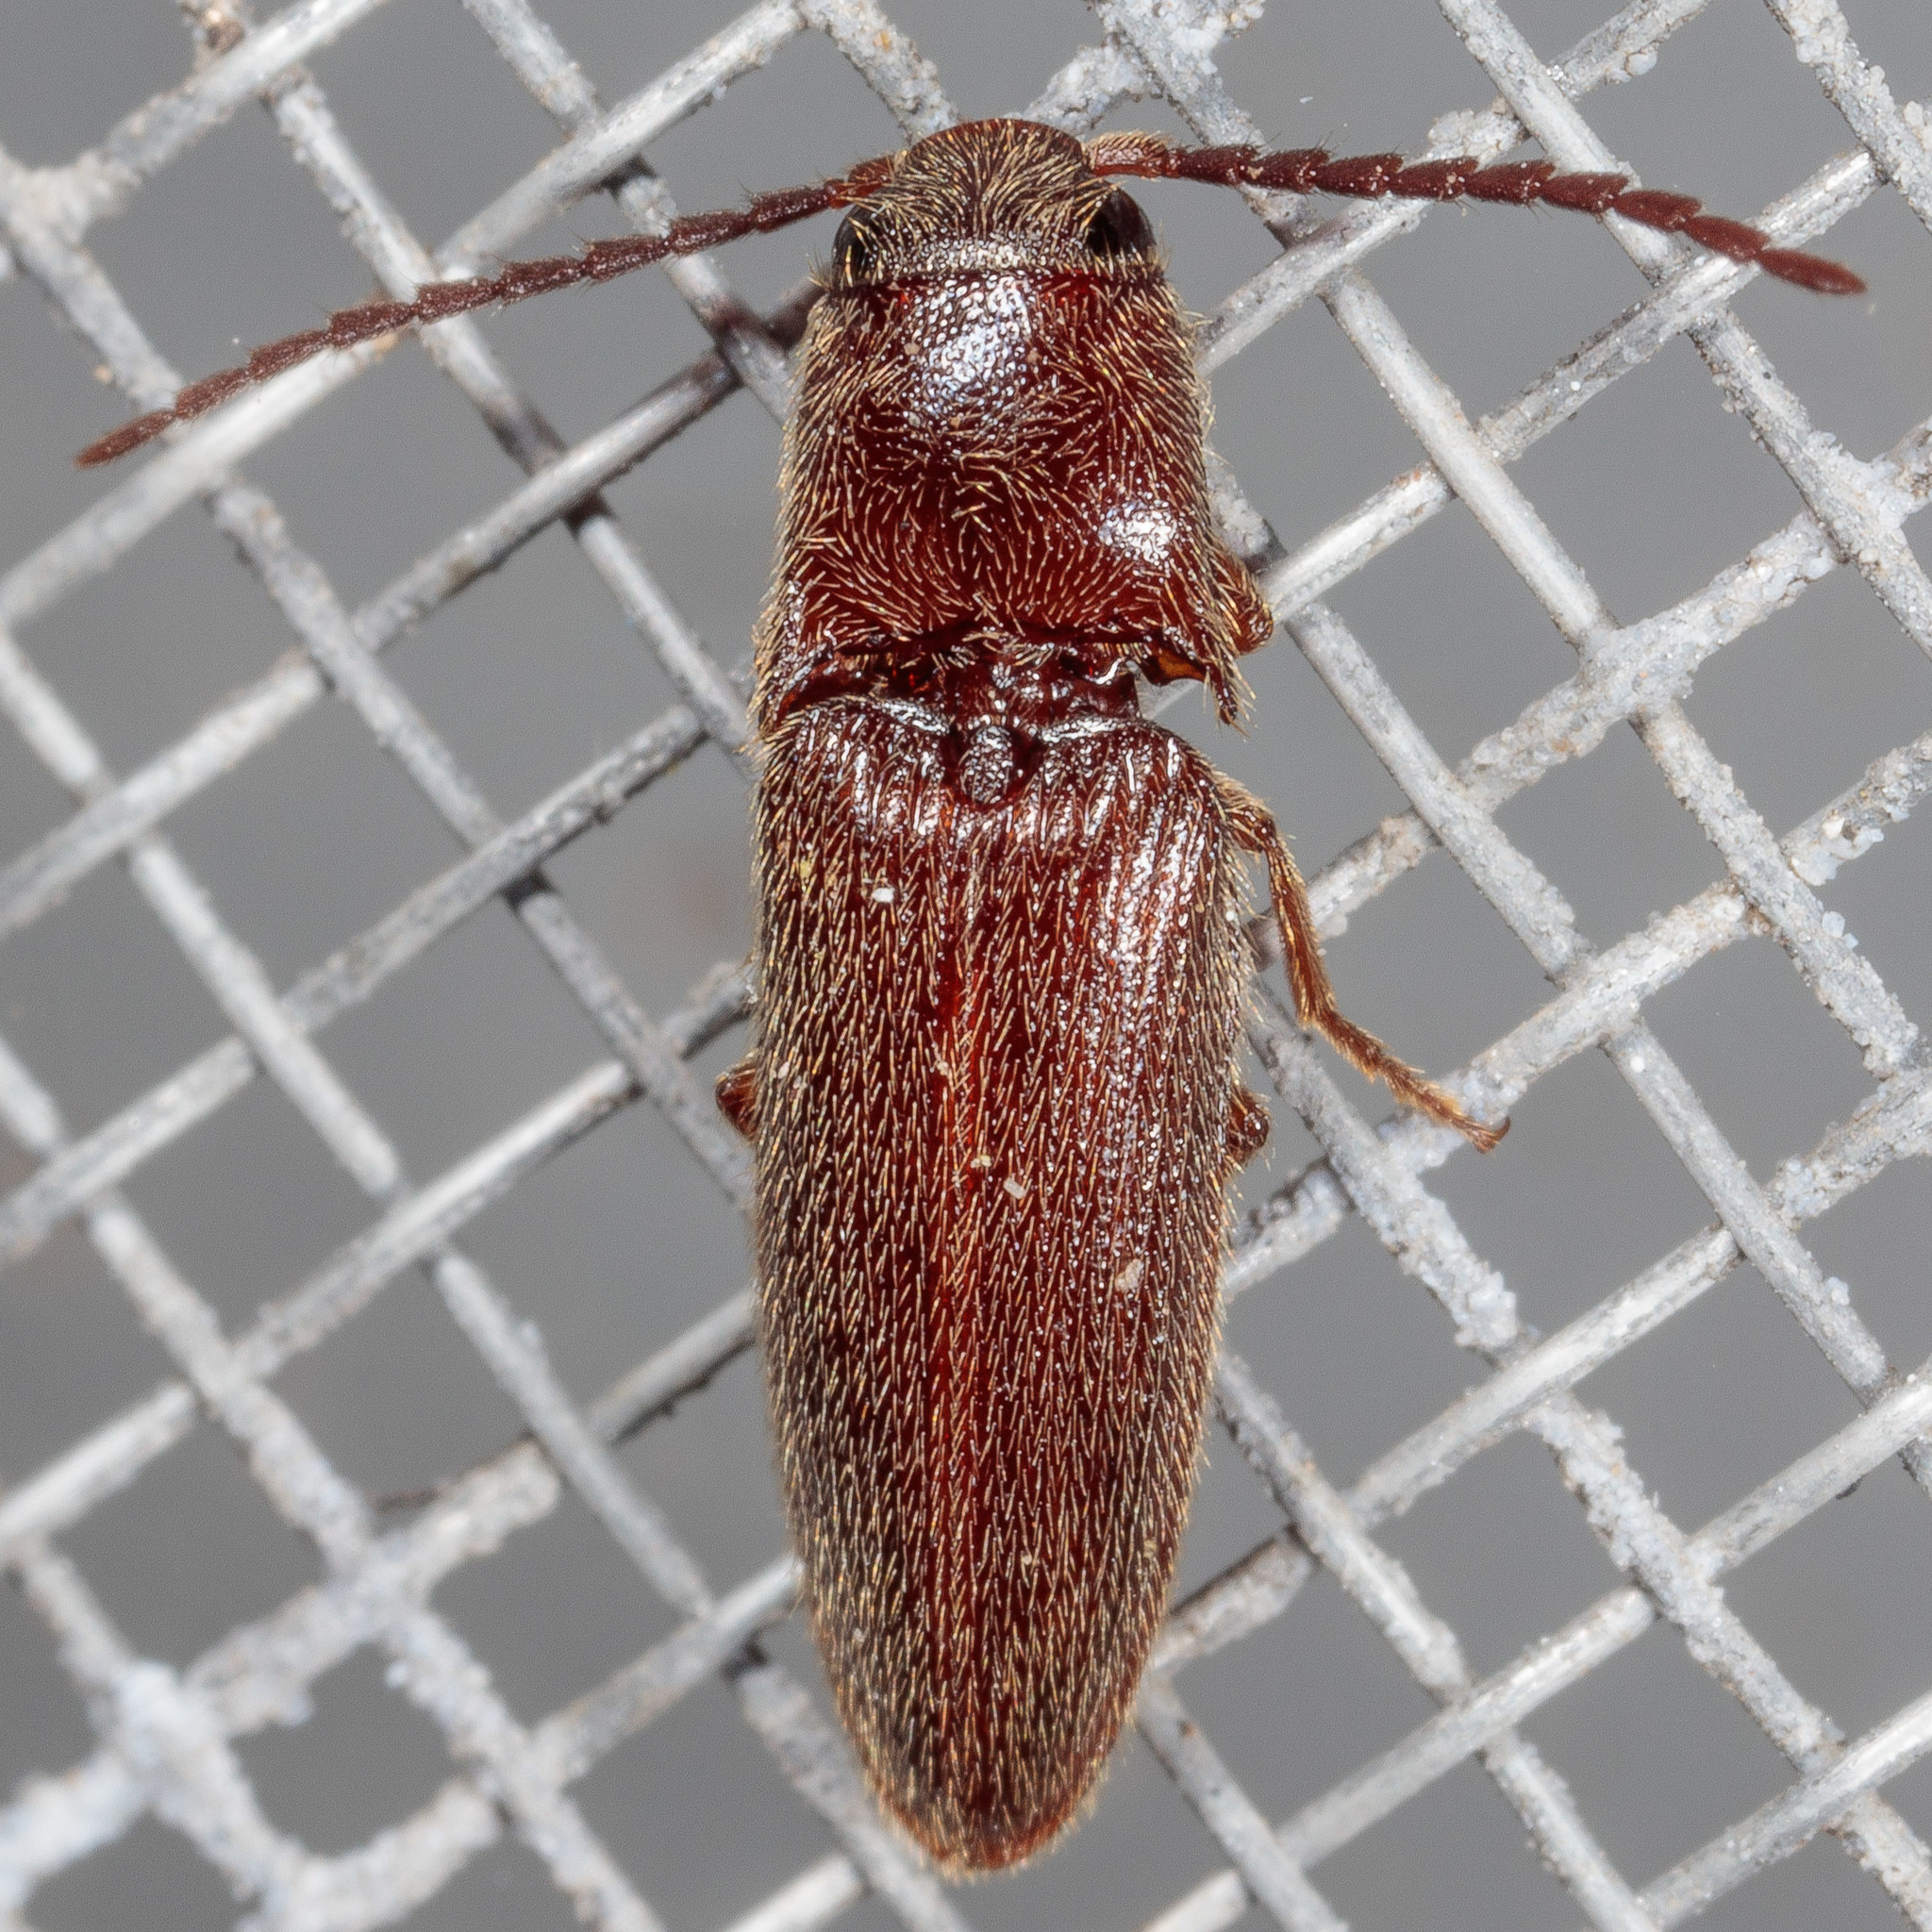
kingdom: Animalia
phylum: Arthropoda
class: Insecta
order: Coleoptera
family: Elateridae
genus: Dipropus
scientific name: Dipropus
